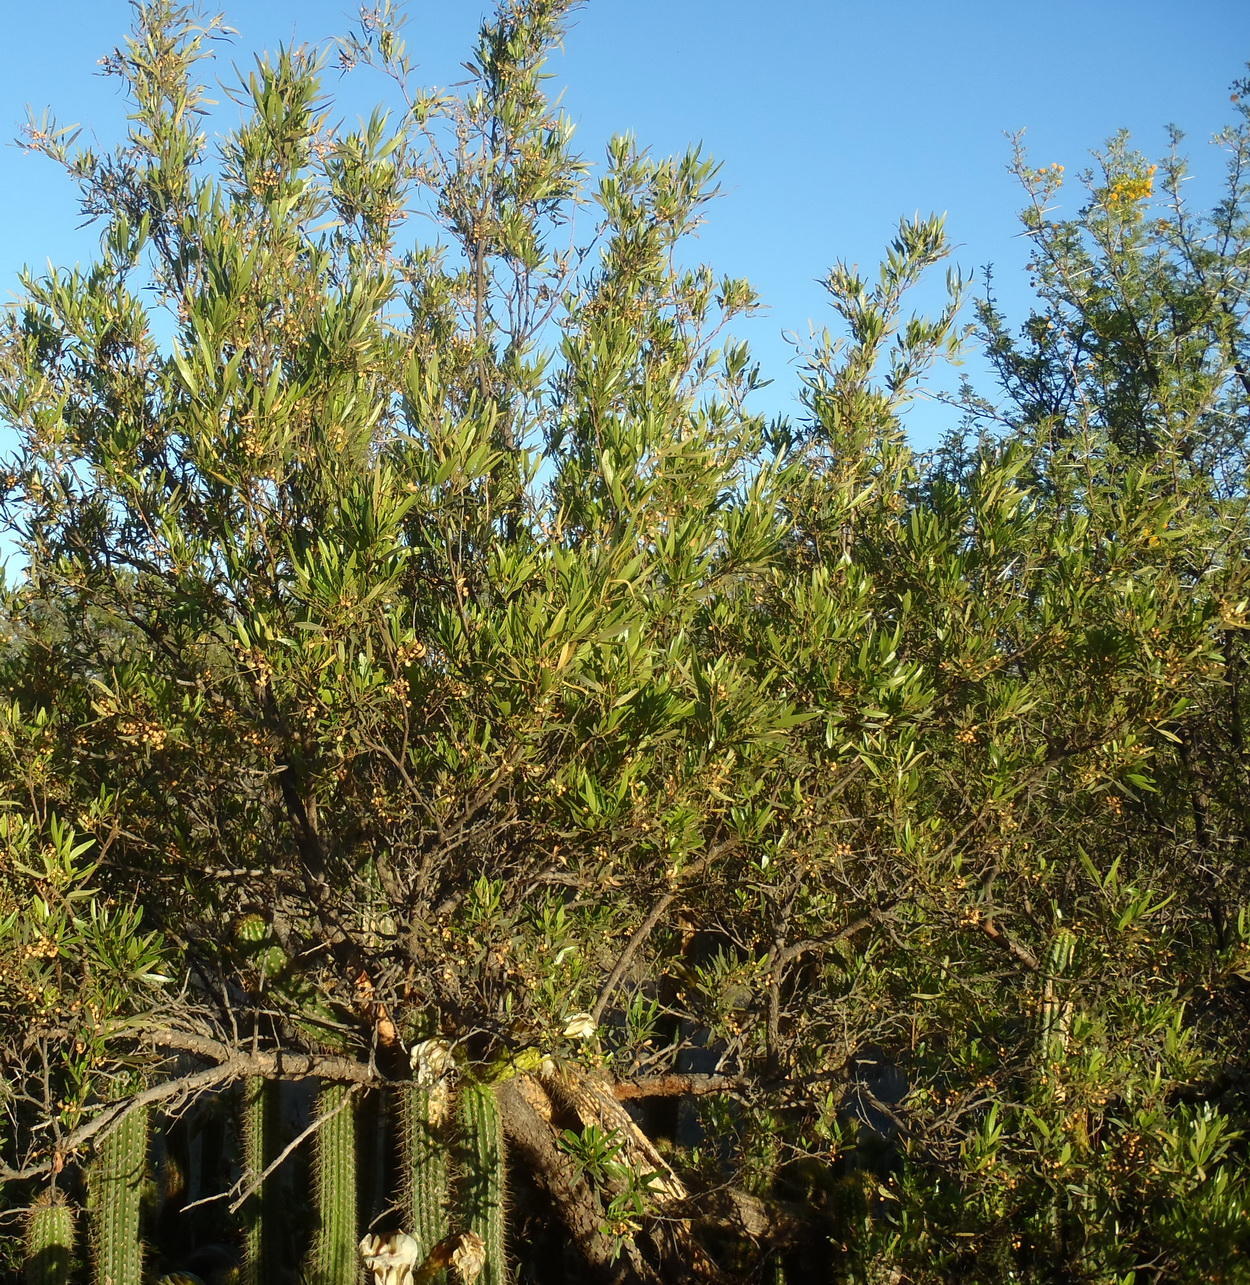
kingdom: Plantae
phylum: Tracheophyta
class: Magnoliopsida
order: Sapindales
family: Anacardiaceae
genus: Searsia
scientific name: Searsia lancea
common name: Cashew
